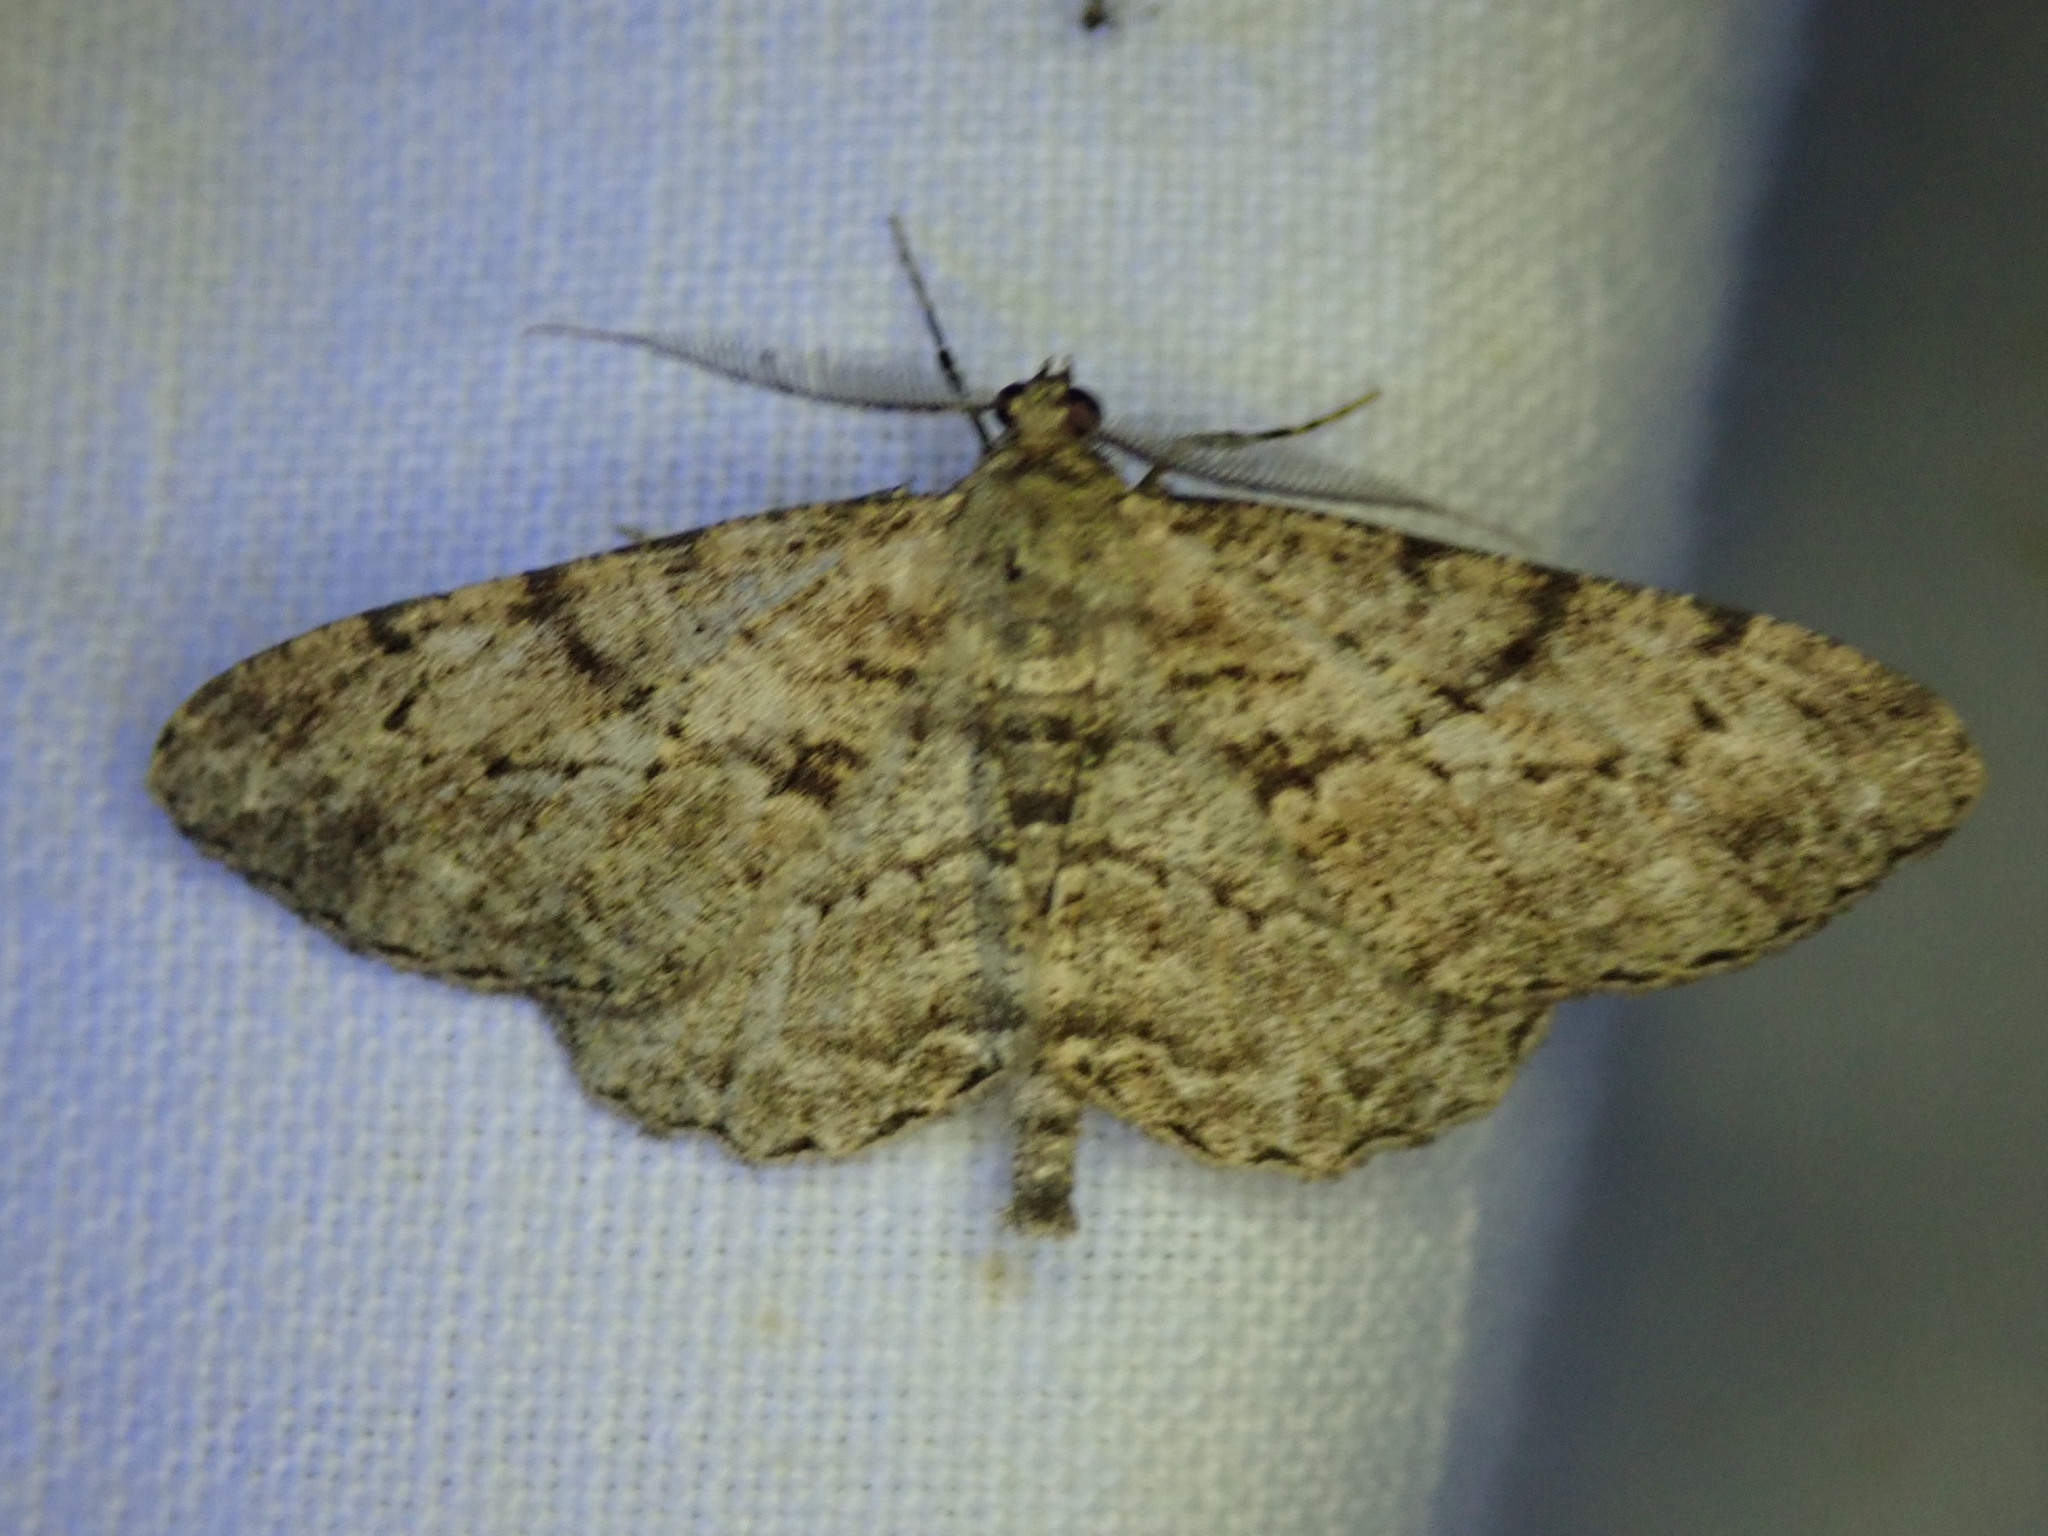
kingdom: Animalia
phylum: Arthropoda
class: Insecta
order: Lepidoptera
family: Geometridae
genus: Peribatodes
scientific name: Peribatodes rhomboidaria
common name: Willow beauty
